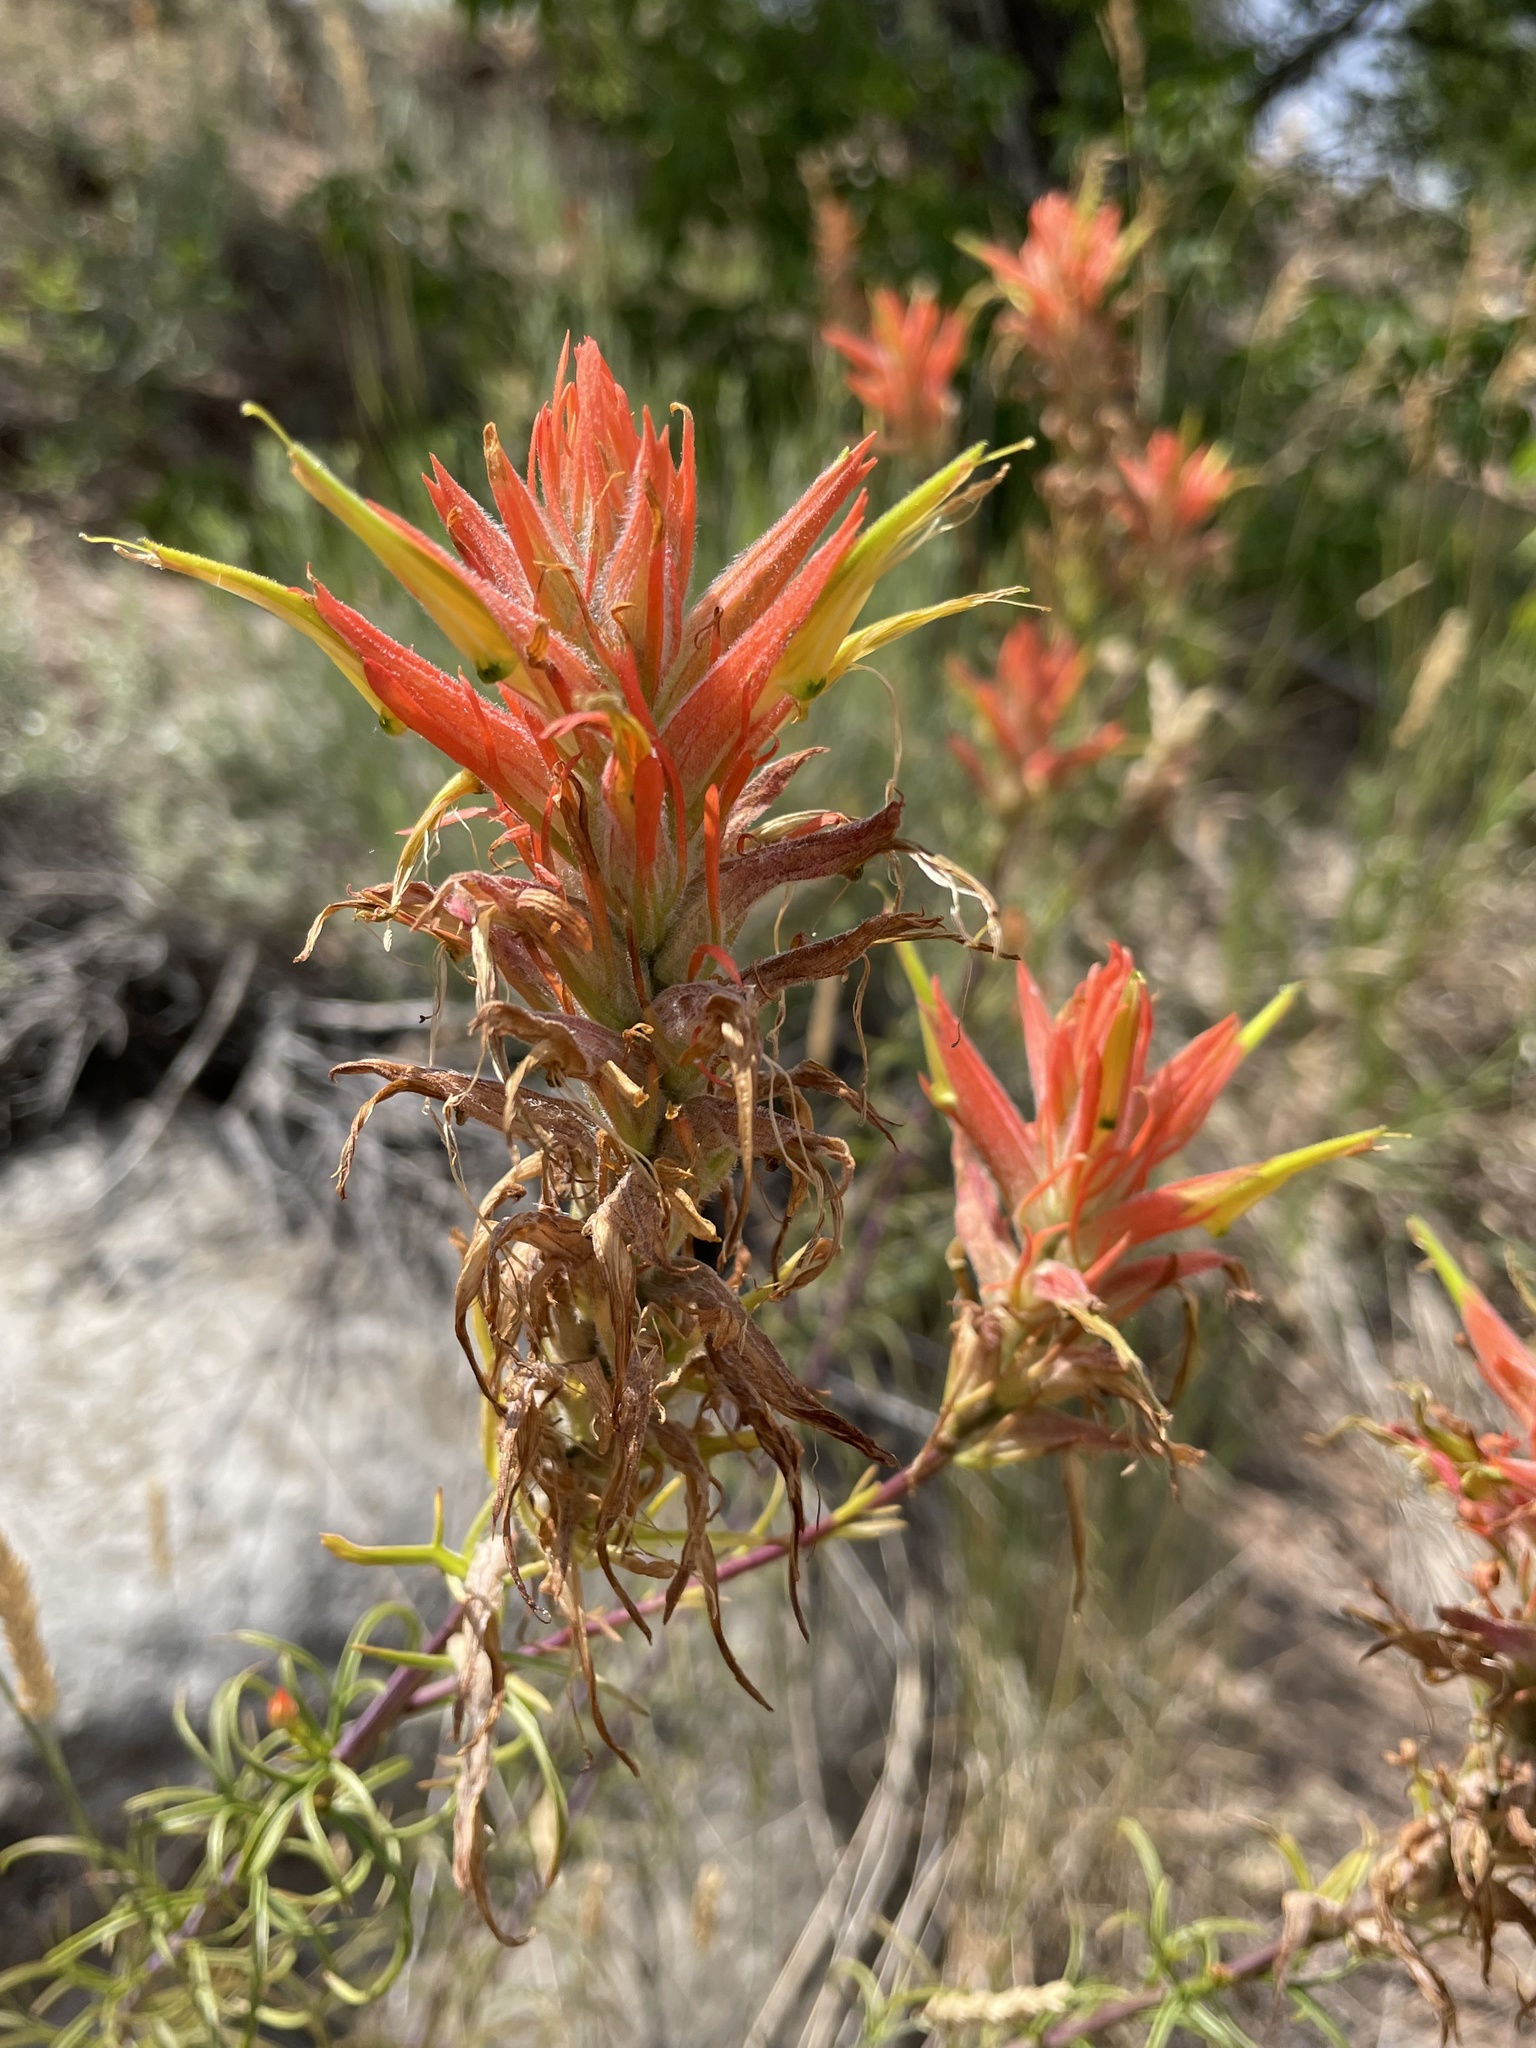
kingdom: Plantae
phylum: Tracheophyta
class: Magnoliopsida
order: Lamiales
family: Orobanchaceae
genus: Castilleja
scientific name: Castilleja linariifolia
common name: Wyoming paintbrush
